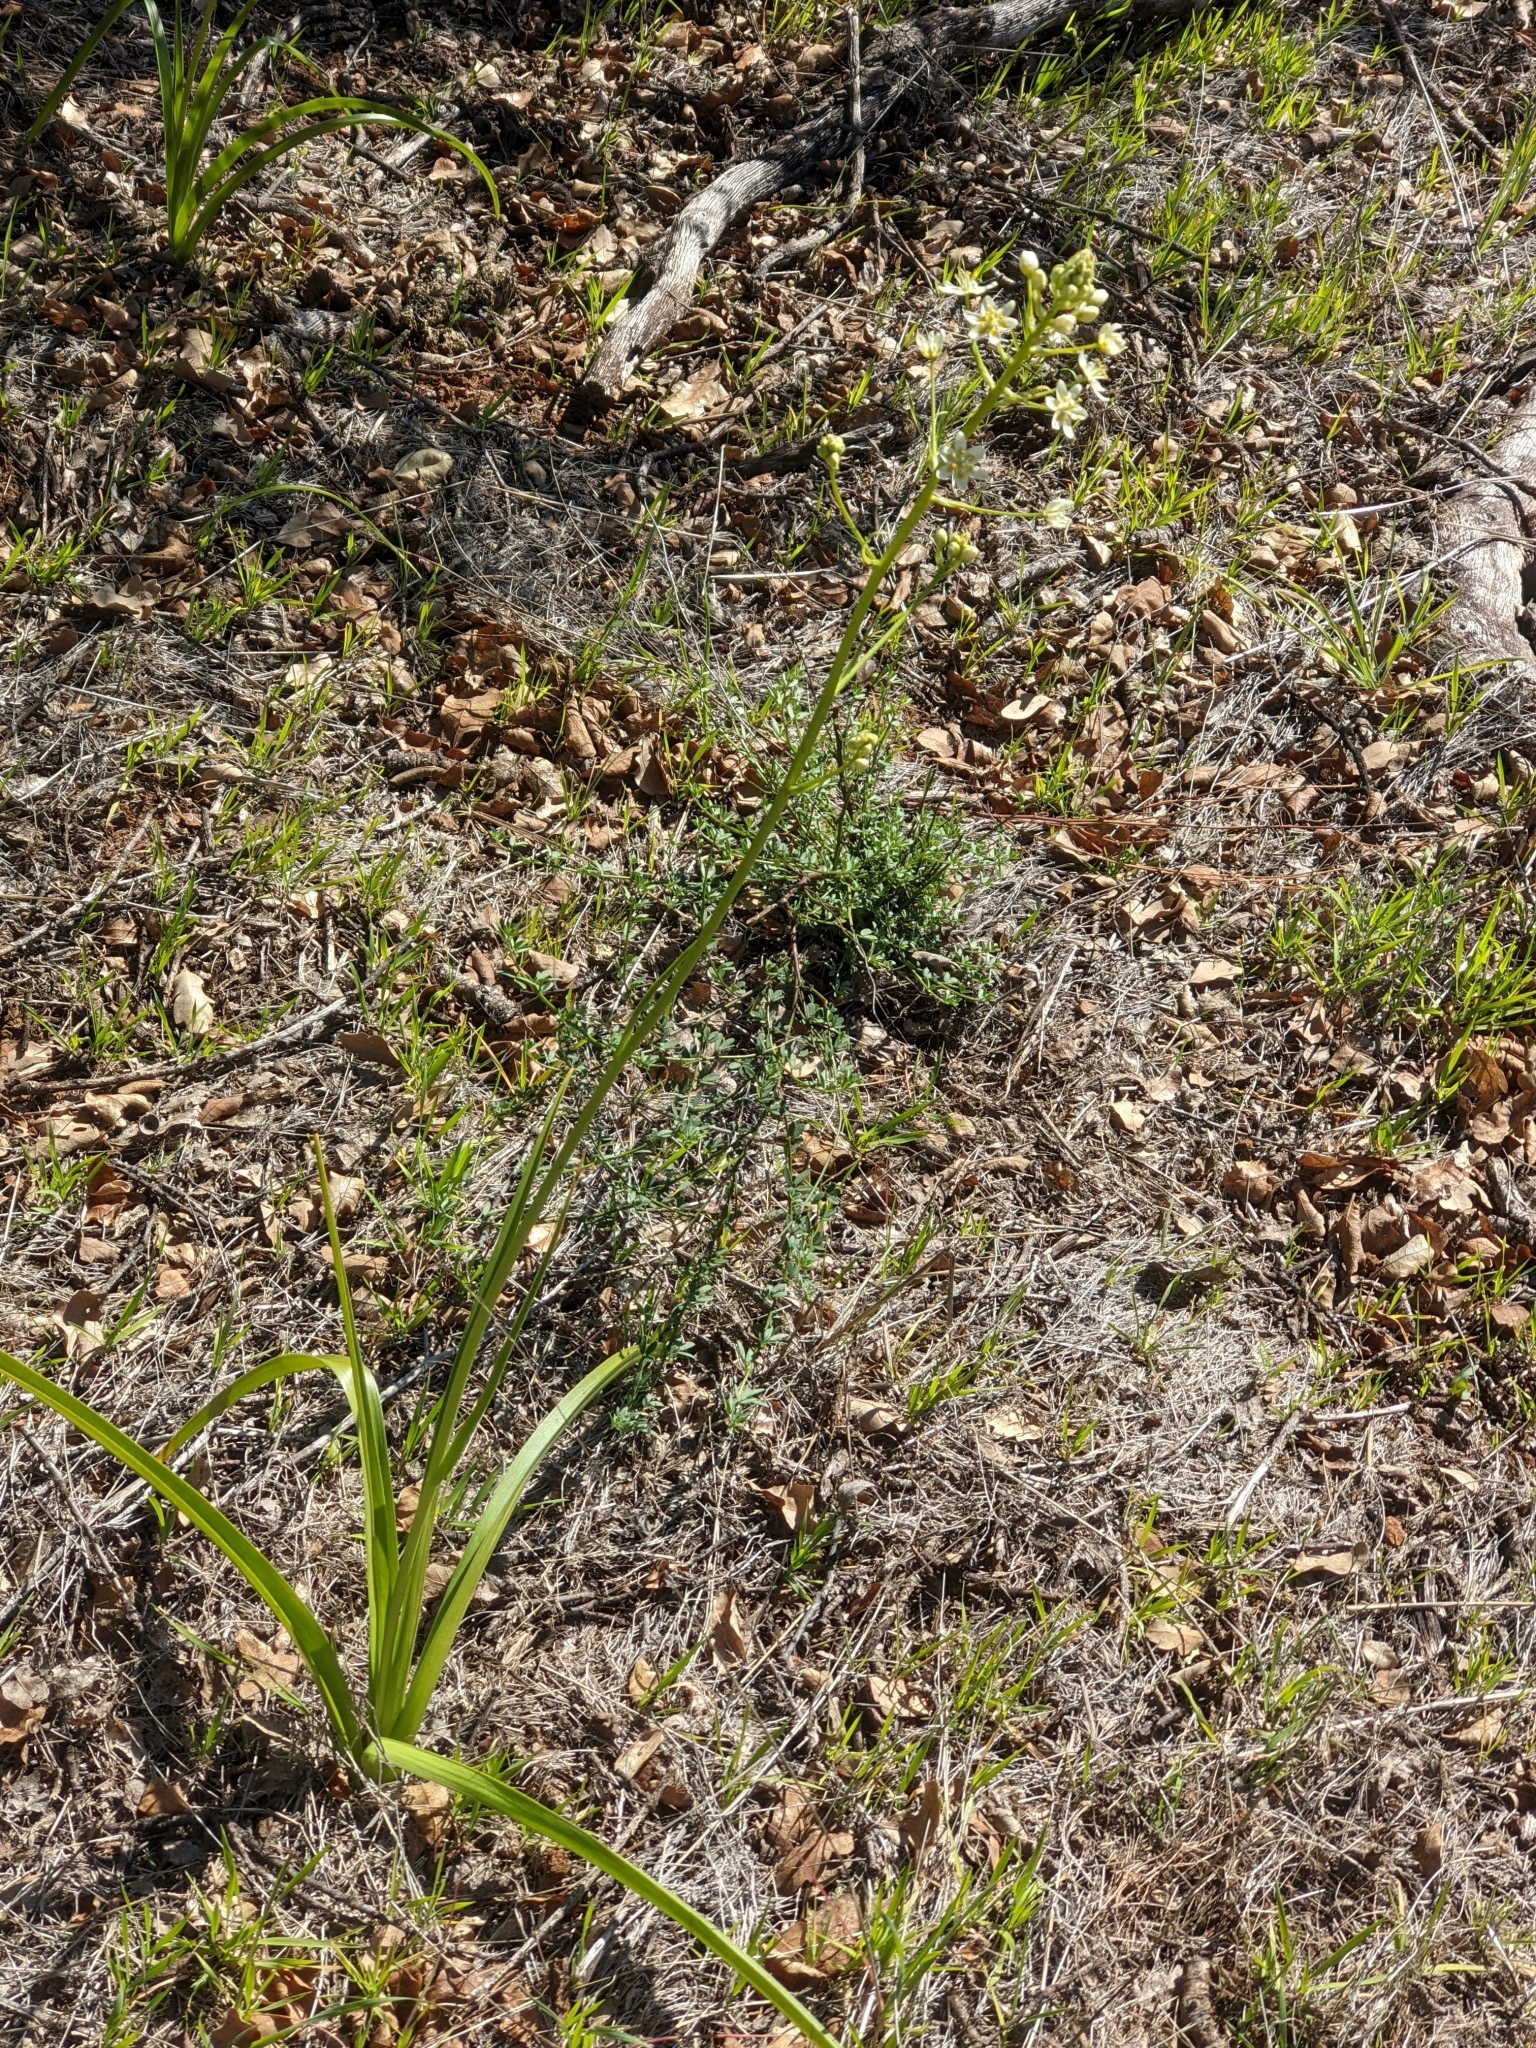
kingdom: Plantae
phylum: Tracheophyta
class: Liliopsida
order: Liliales
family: Melanthiaceae
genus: Toxicoscordion
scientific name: Toxicoscordion fremontii
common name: Fremont's death camas
